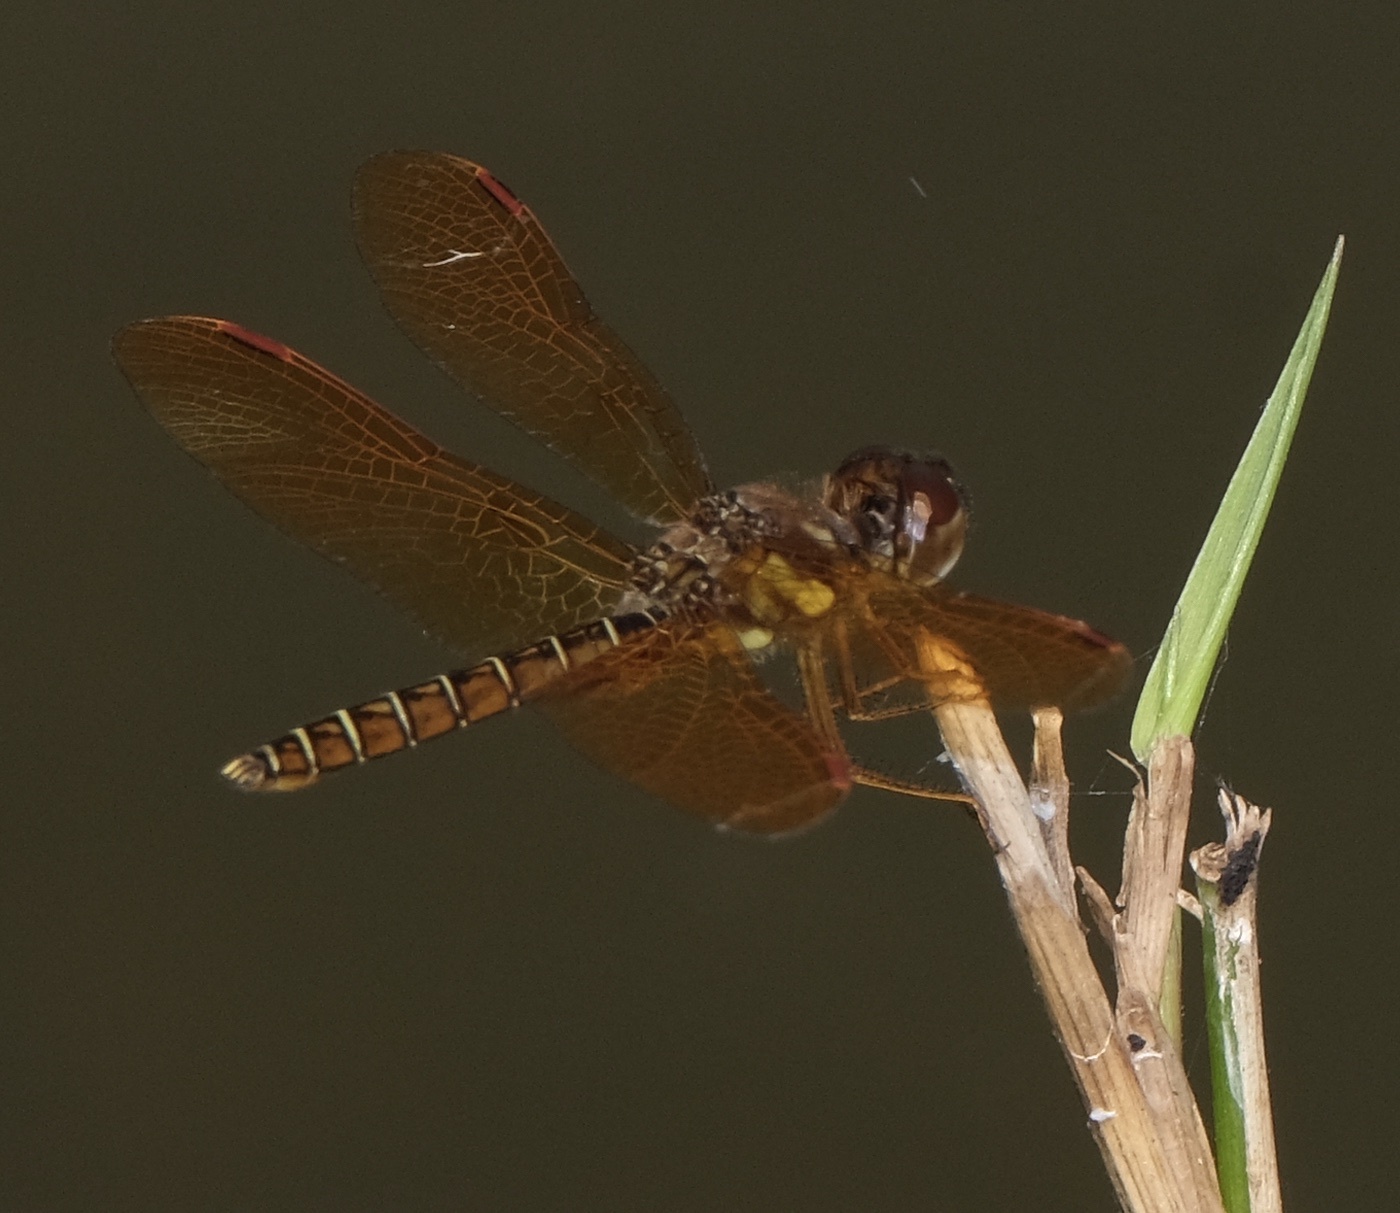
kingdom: Animalia
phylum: Arthropoda
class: Insecta
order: Odonata
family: Libellulidae
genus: Perithemis
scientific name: Perithemis tenera
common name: Eastern amberwing
